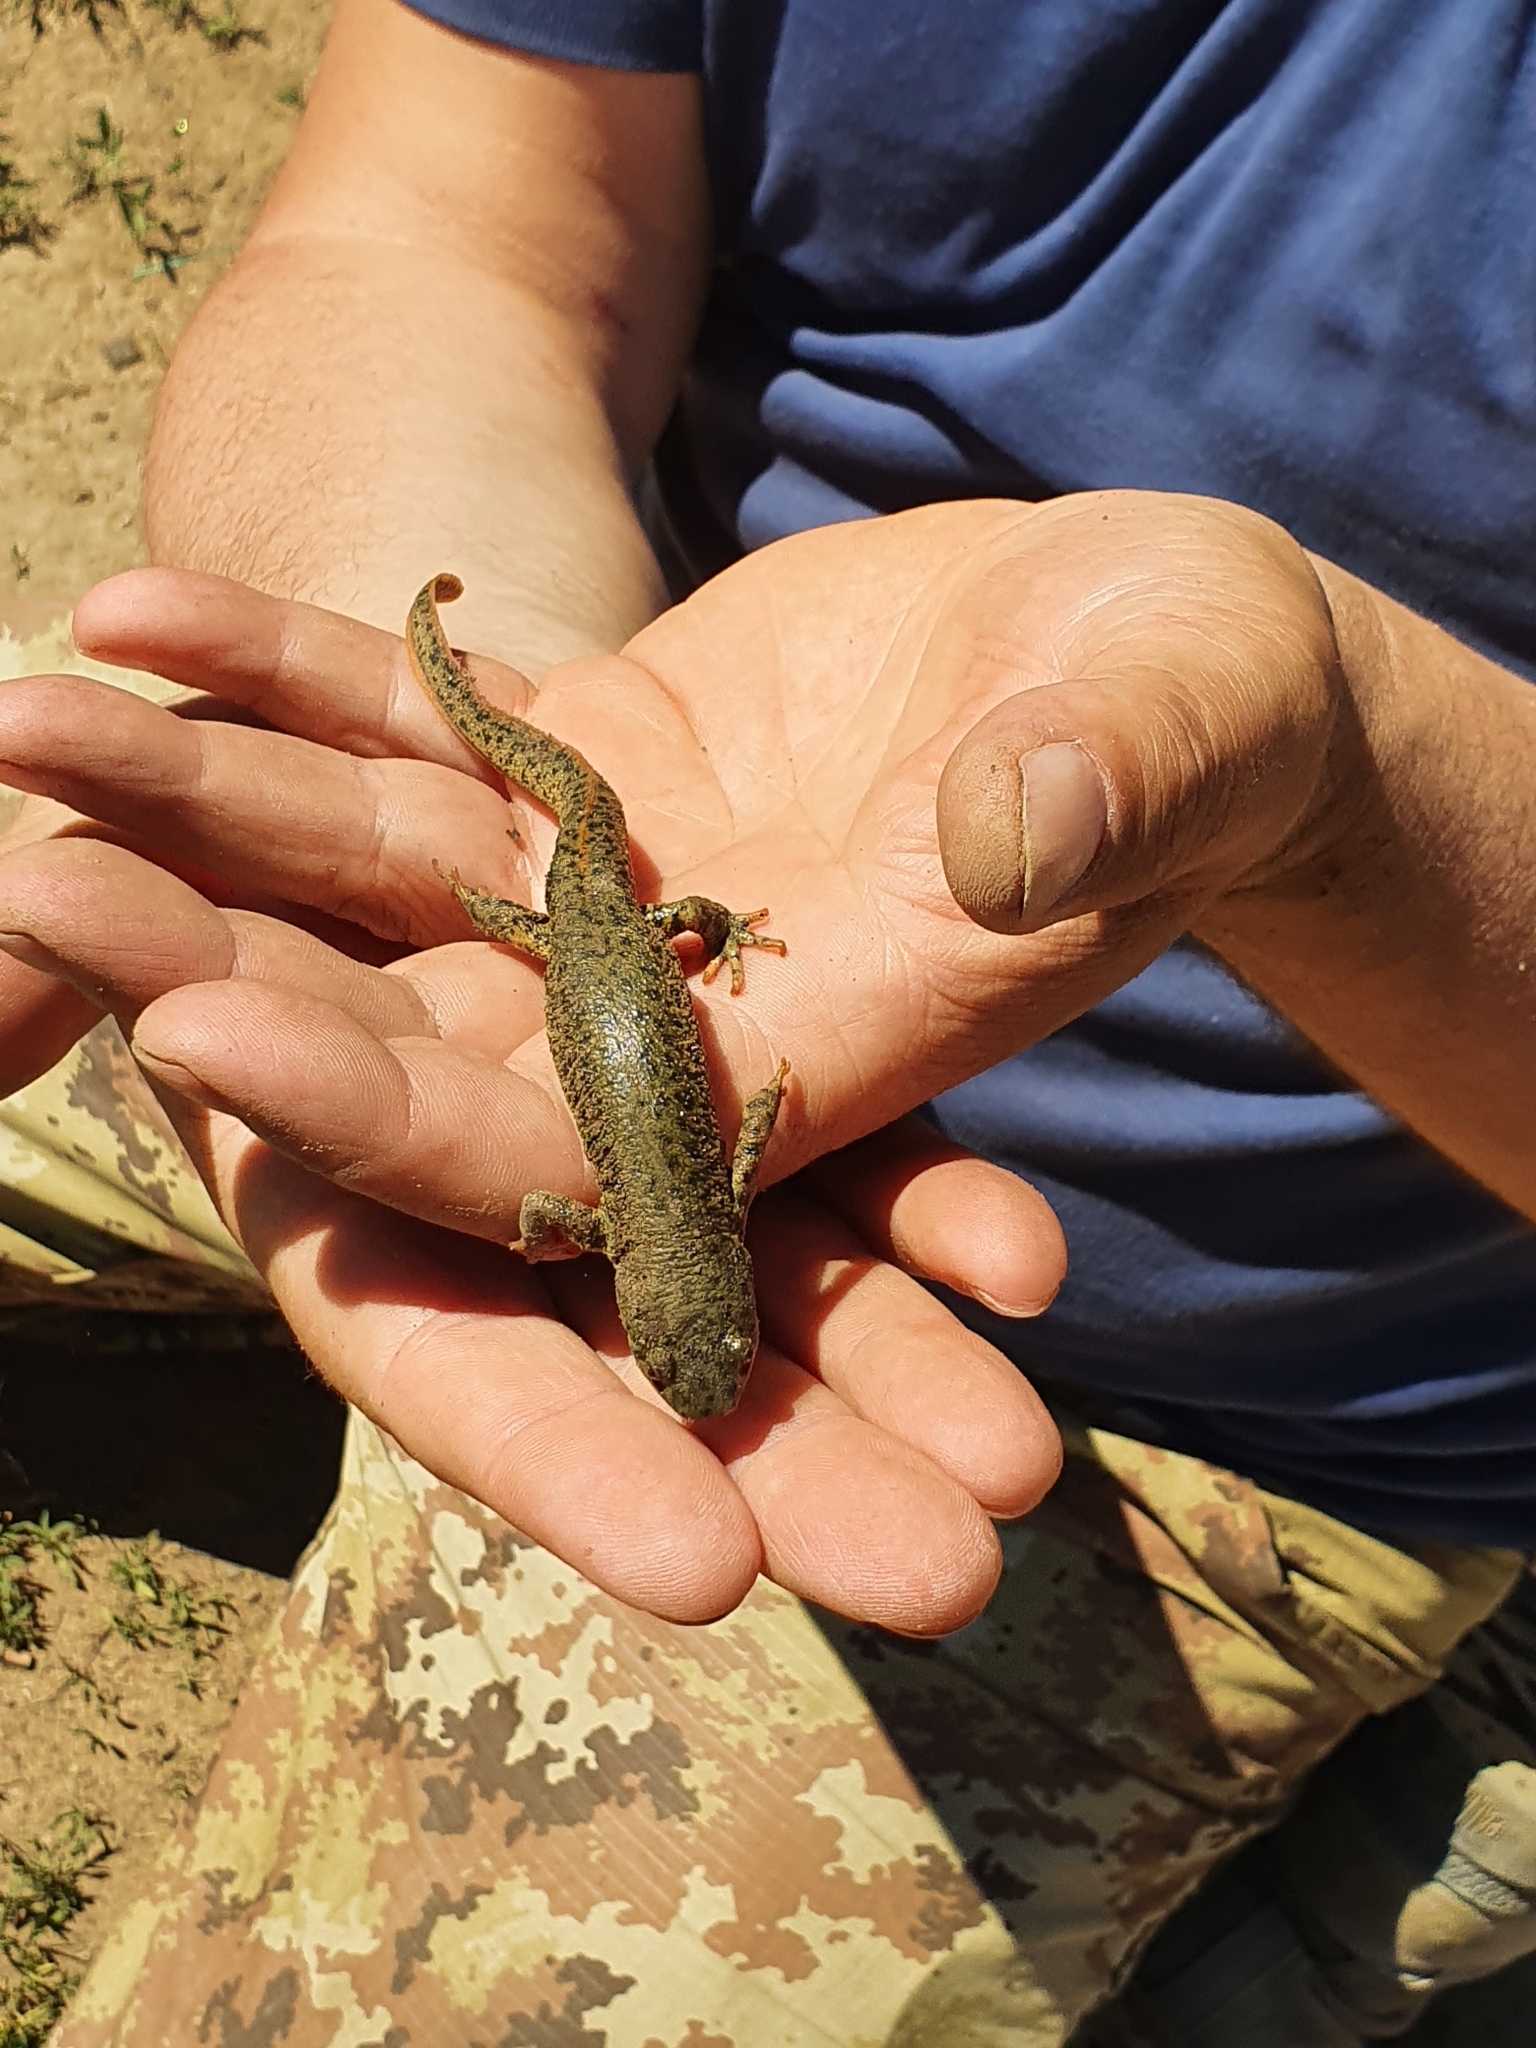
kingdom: Animalia
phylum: Chordata
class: Amphibia
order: Caudata
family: Salamandridae
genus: Pleurodeles
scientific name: Pleurodeles nebulosus
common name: Algerian ribbed newt
